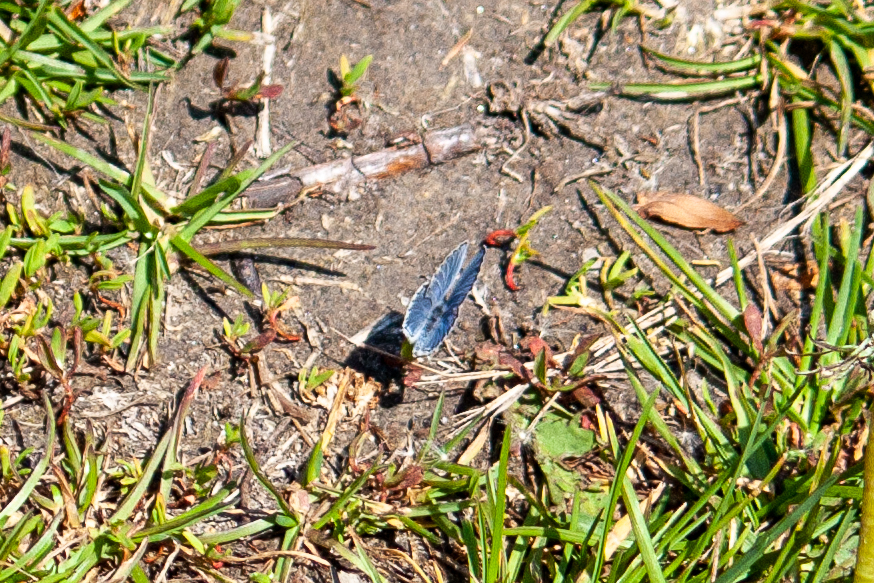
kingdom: Animalia
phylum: Arthropoda
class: Insecta
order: Lepidoptera
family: Lycaenidae
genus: Elkalyce
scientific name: Elkalyce comyntas
